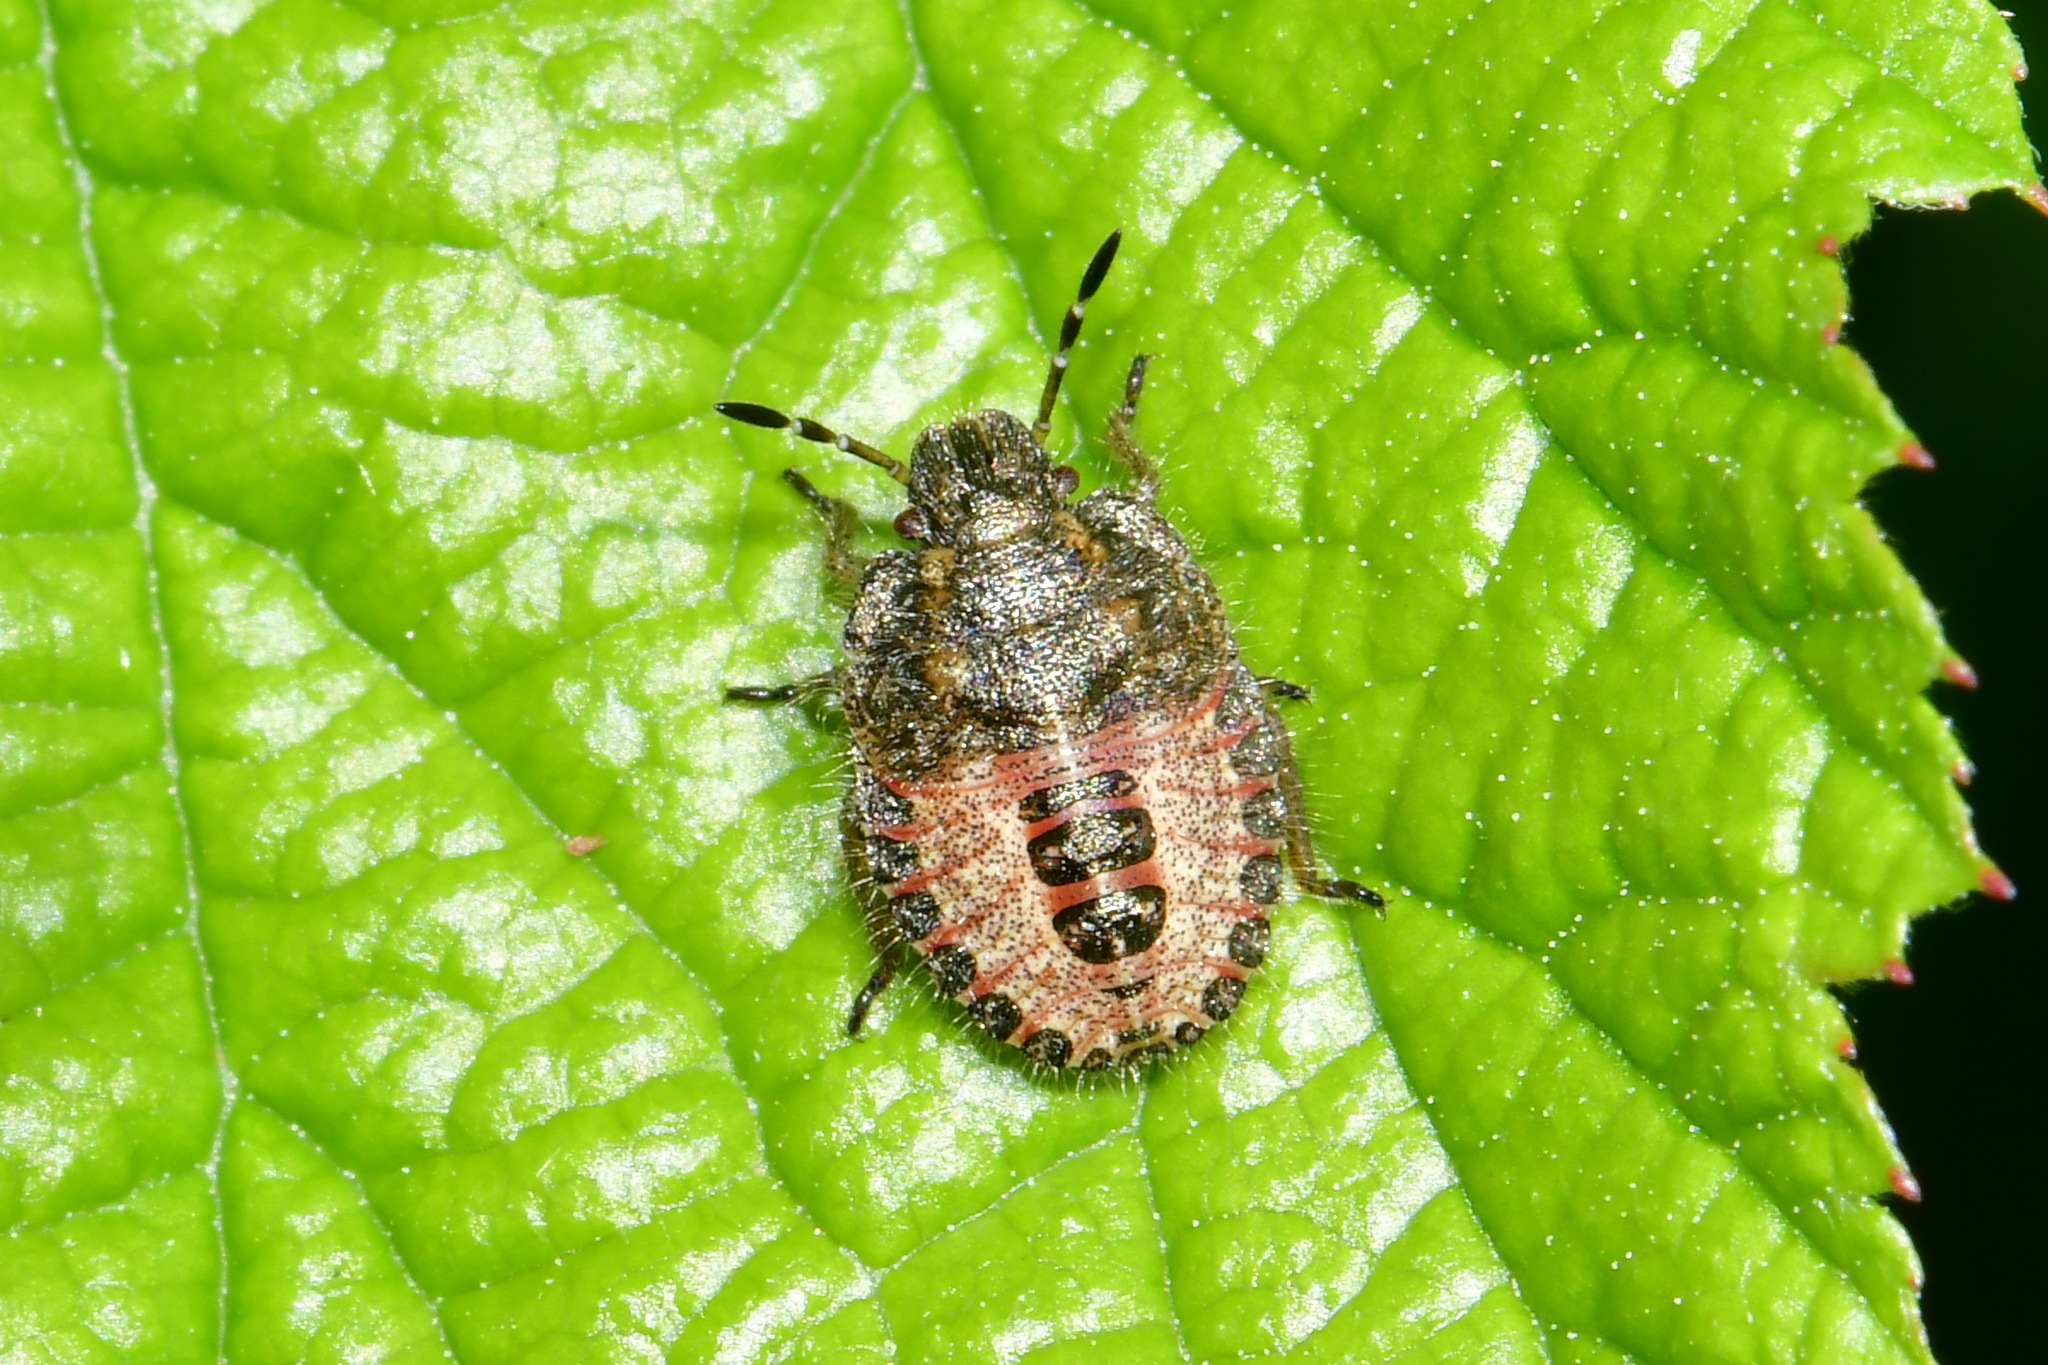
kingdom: Animalia
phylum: Arthropoda
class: Insecta
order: Hemiptera
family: Pentatomidae
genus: Dolycoris
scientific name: Dolycoris baccarum
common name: Sloe bug
